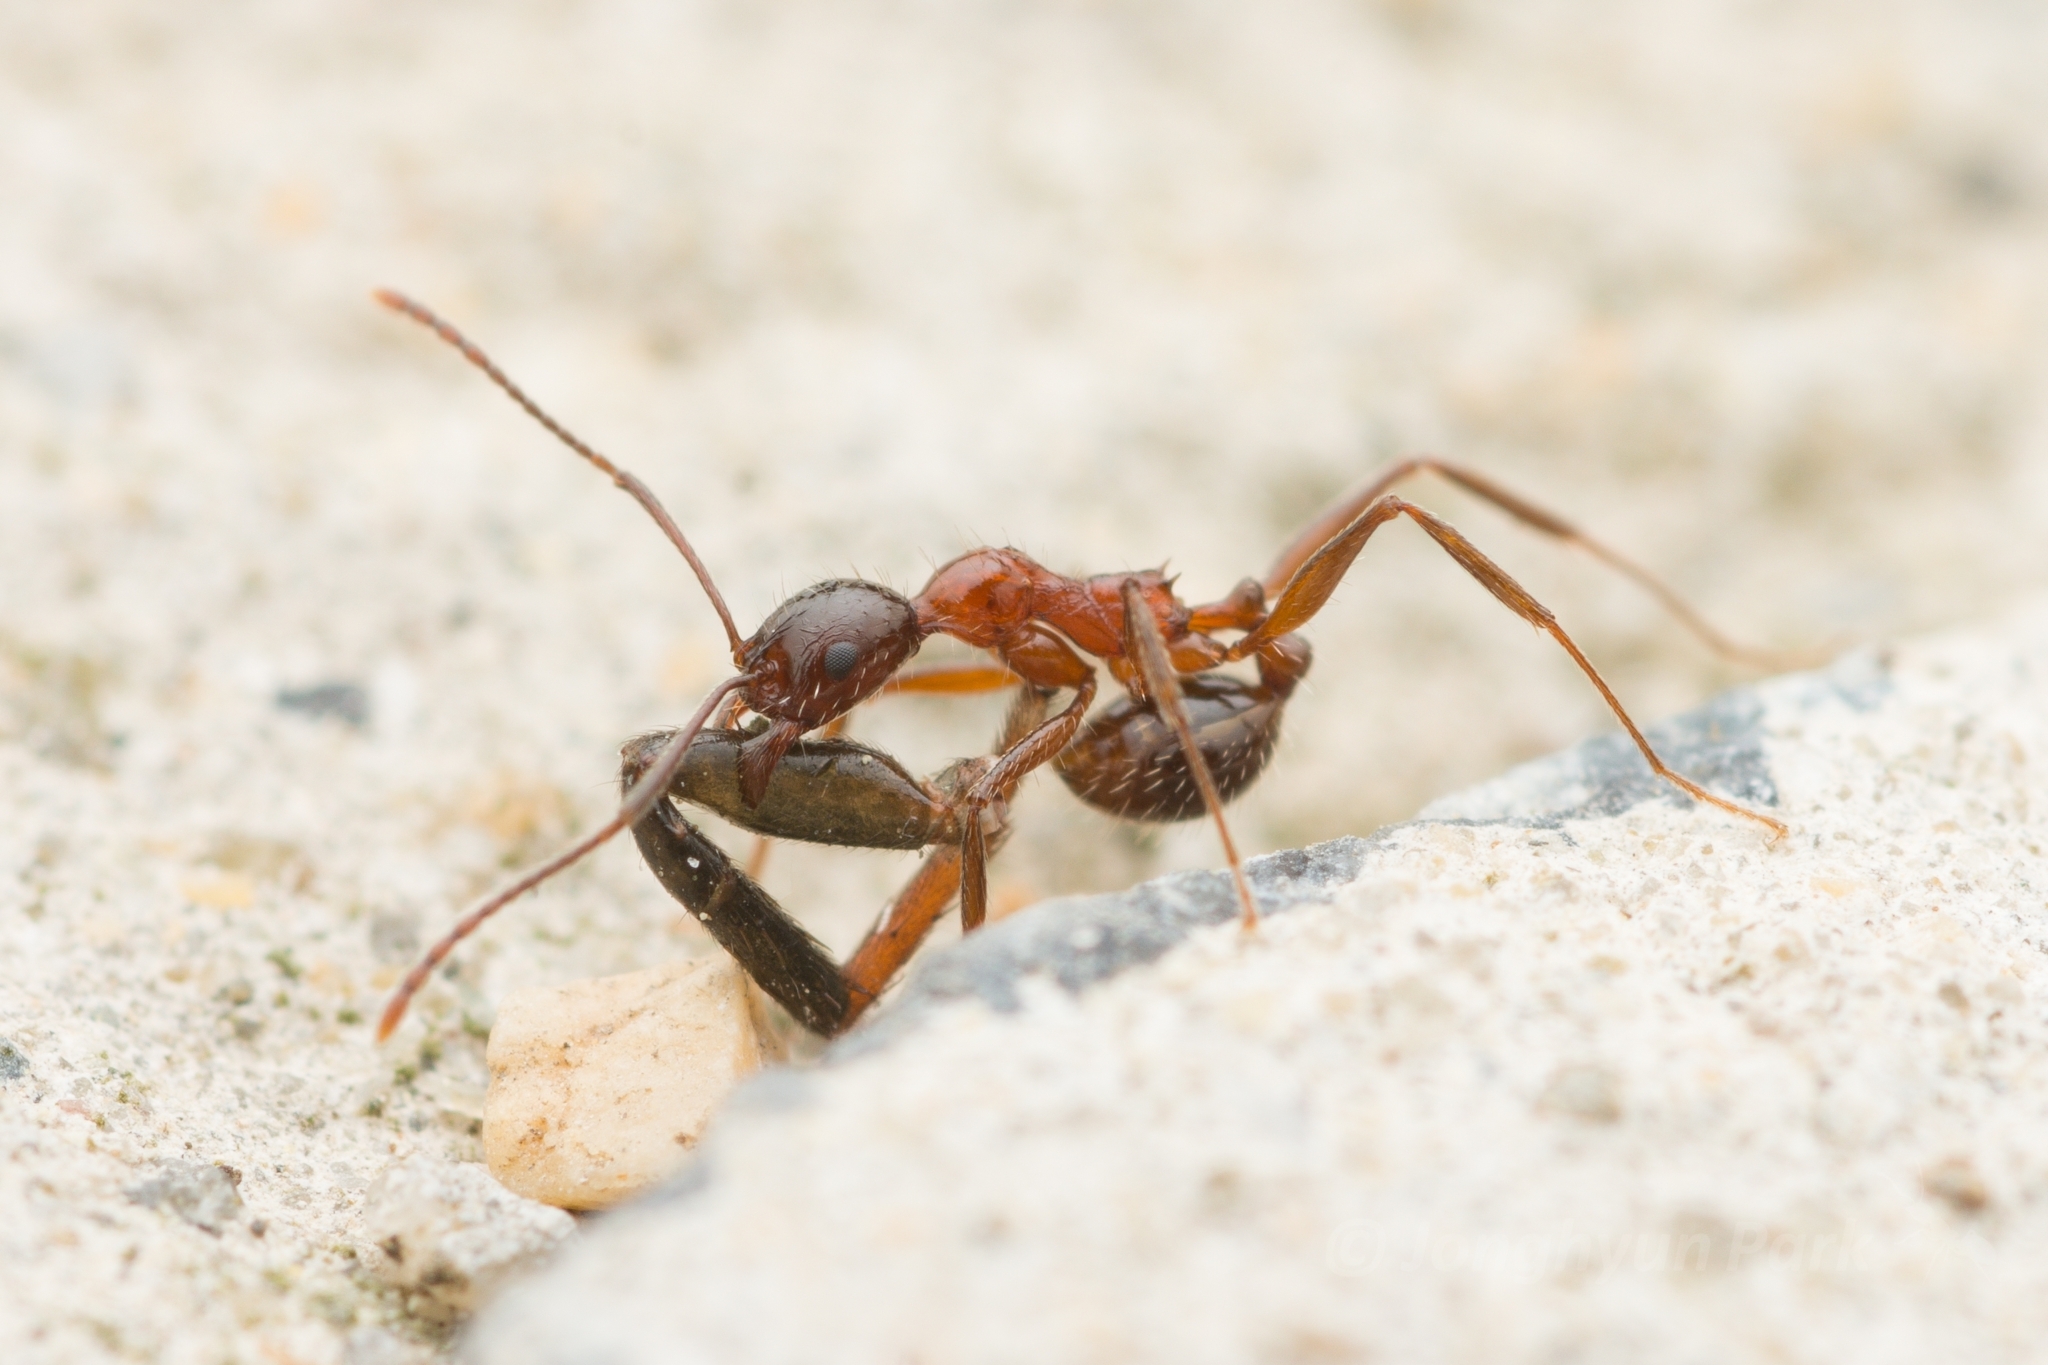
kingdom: Animalia
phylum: Arthropoda
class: Insecta
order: Hymenoptera
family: Formicidae
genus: Aphaenogaster
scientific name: Aphaenogaster lepida
